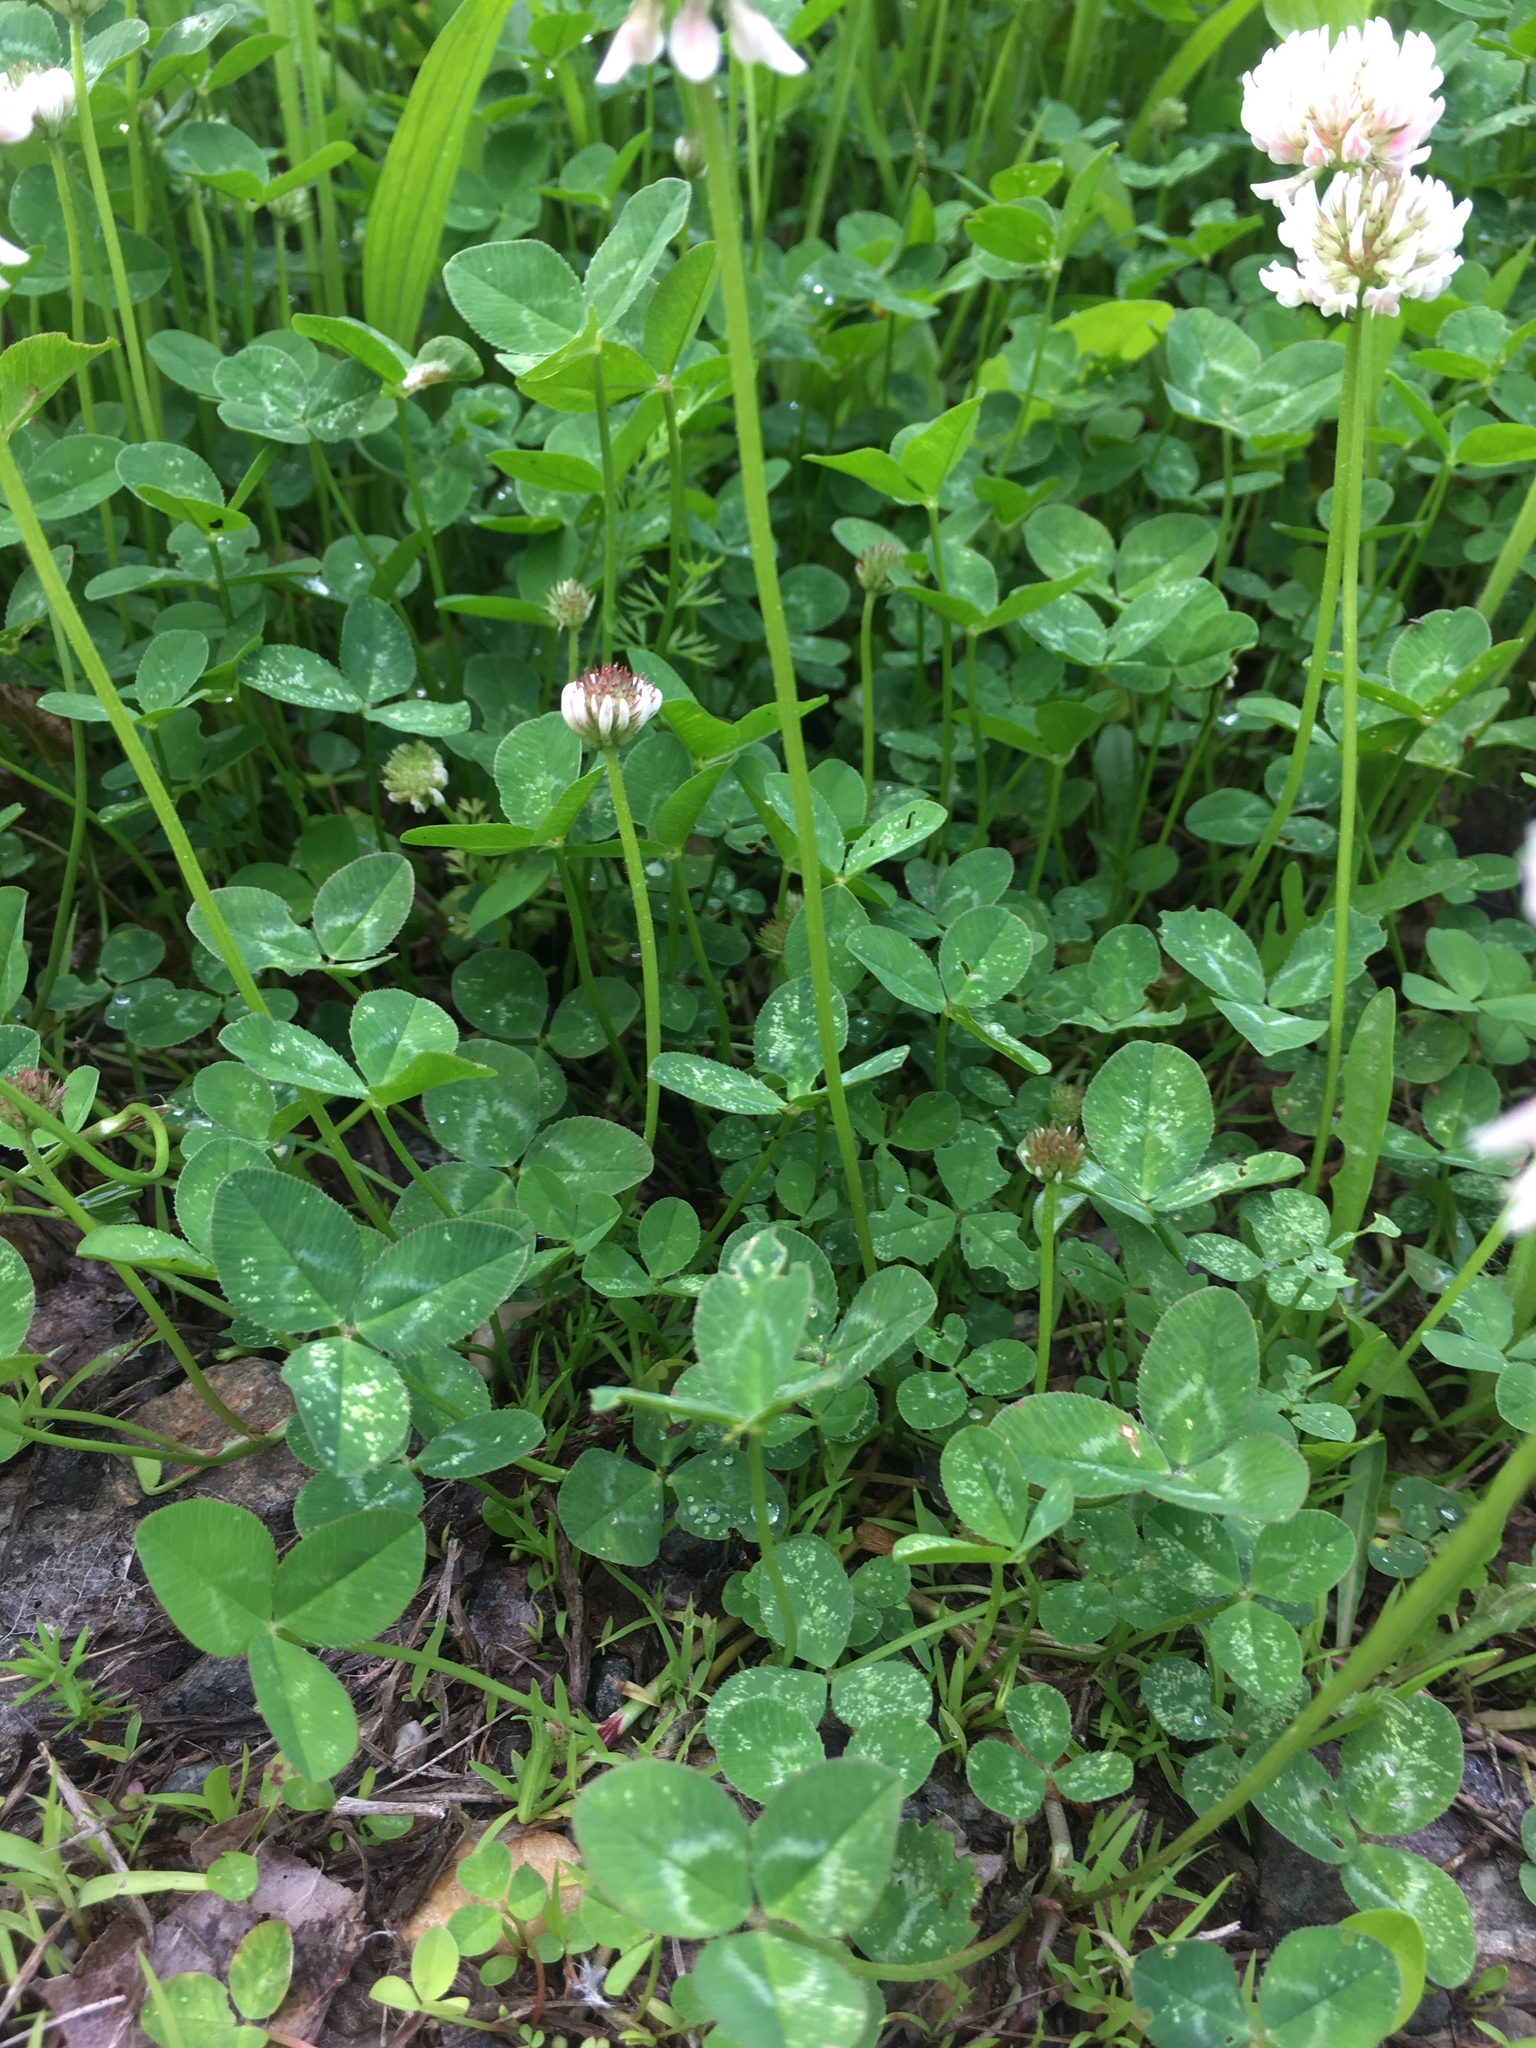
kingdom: Plantae
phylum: Tracheophyta
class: Magnoliopsida
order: Fabales
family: Fabaceae
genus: Trifolium
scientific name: Trifolium repens
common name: White clover
